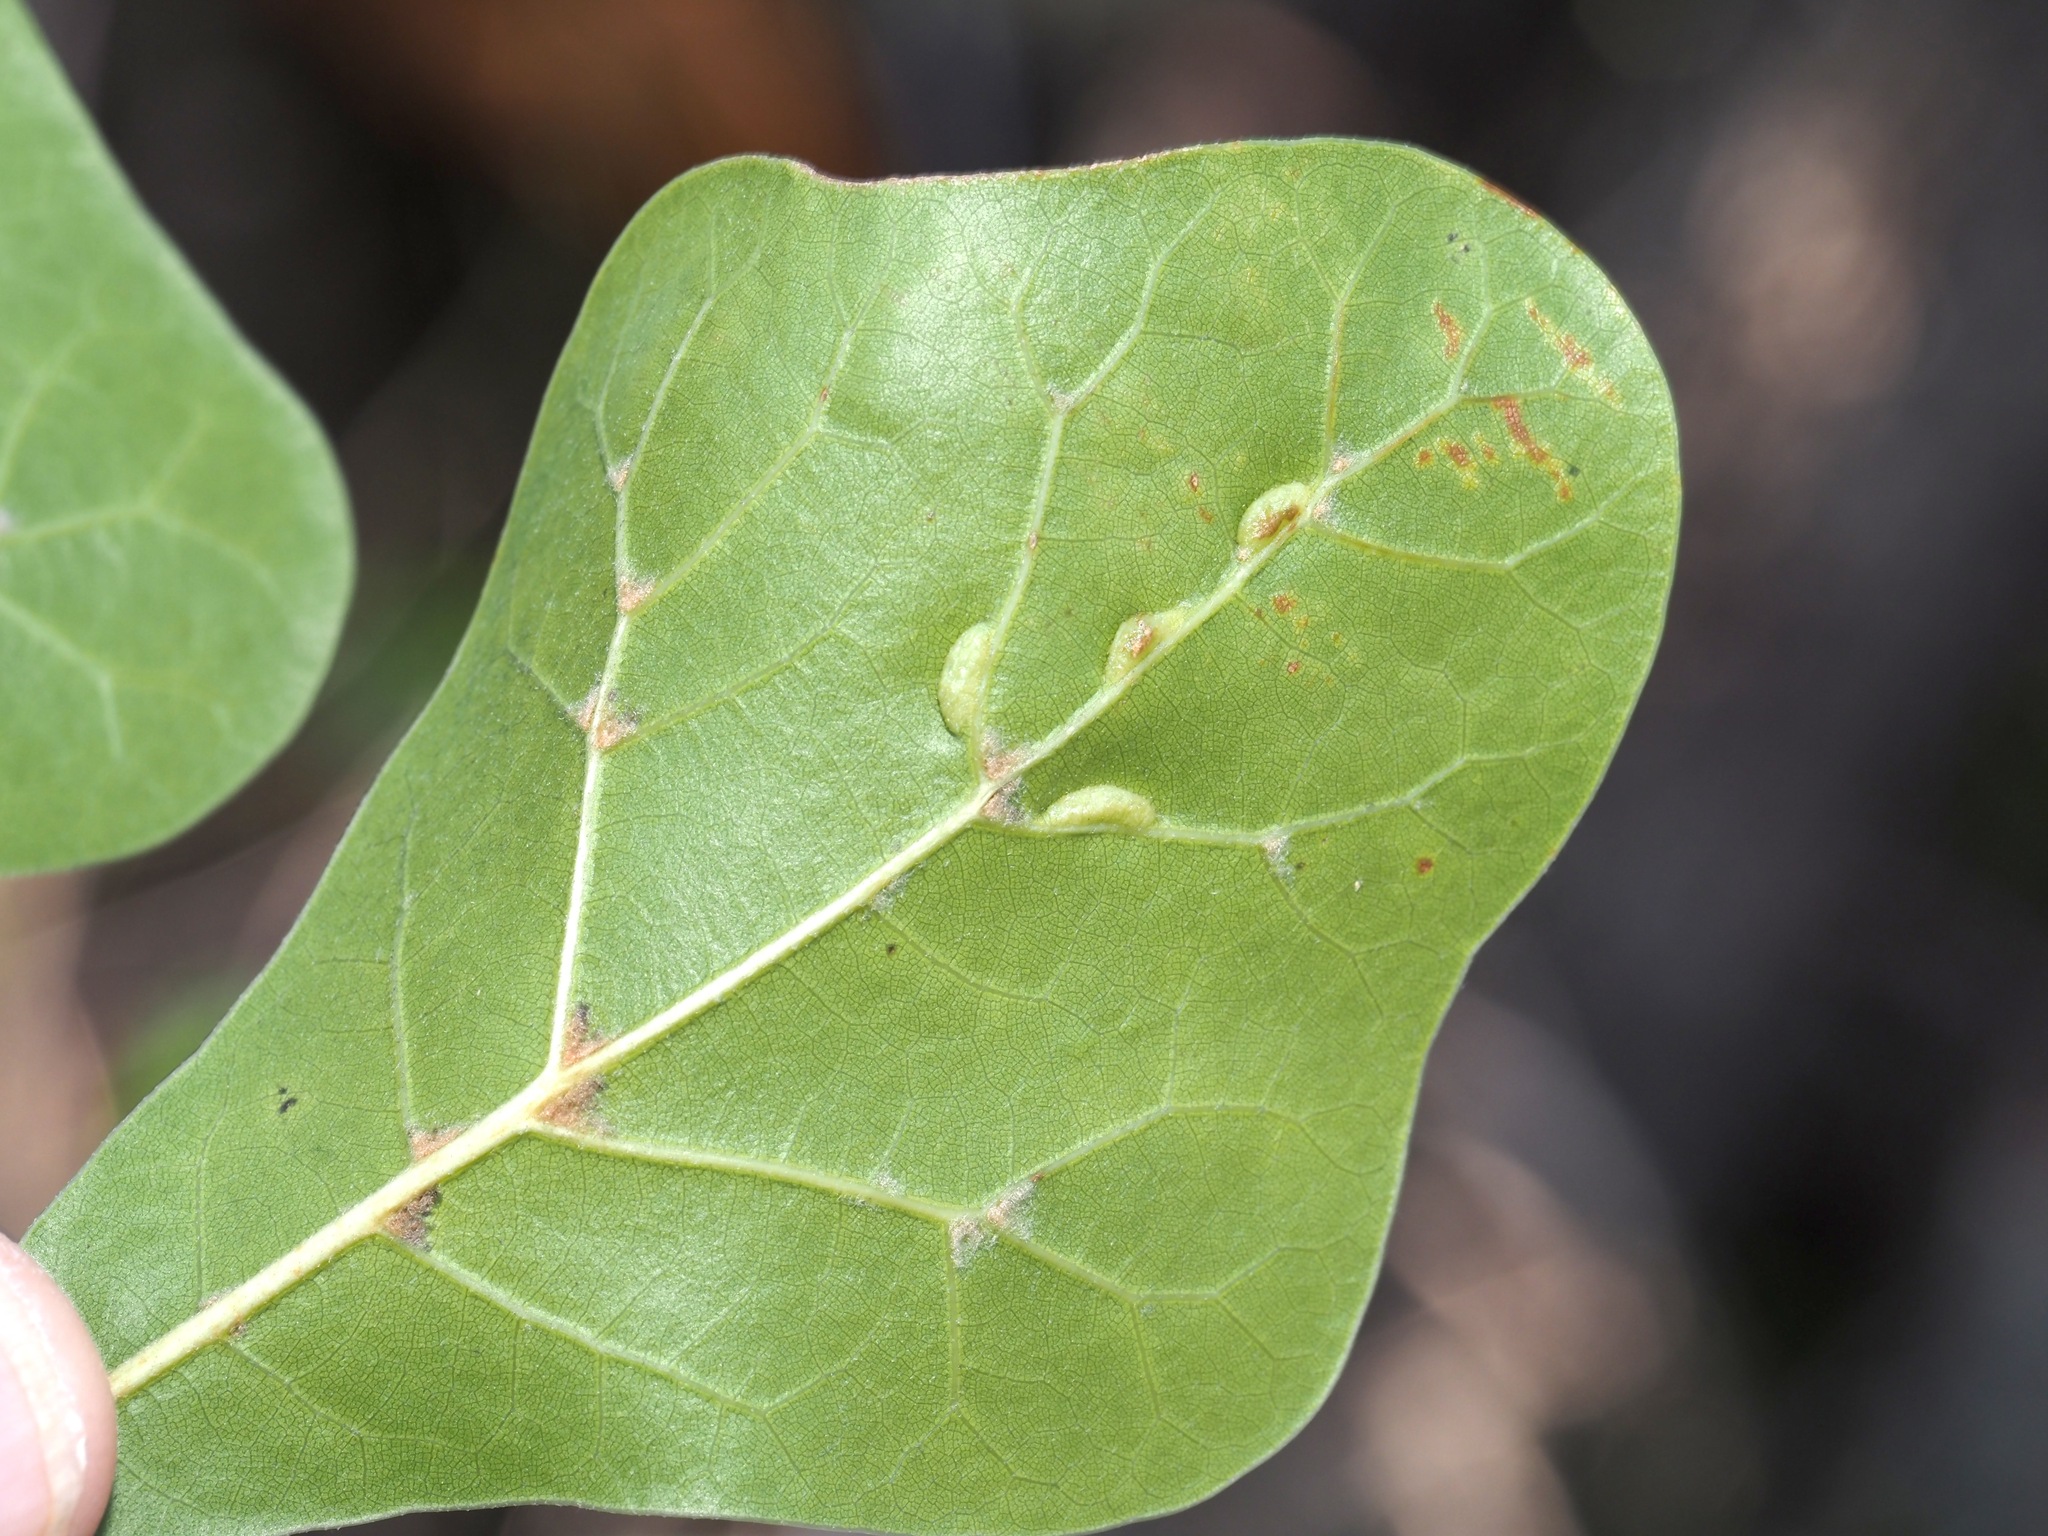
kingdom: Animalia
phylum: Arthropoda
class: Insecta
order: Diptera
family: Cecidomyiidae
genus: Macrodiplosis
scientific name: Macrodiplosis q-orucum
